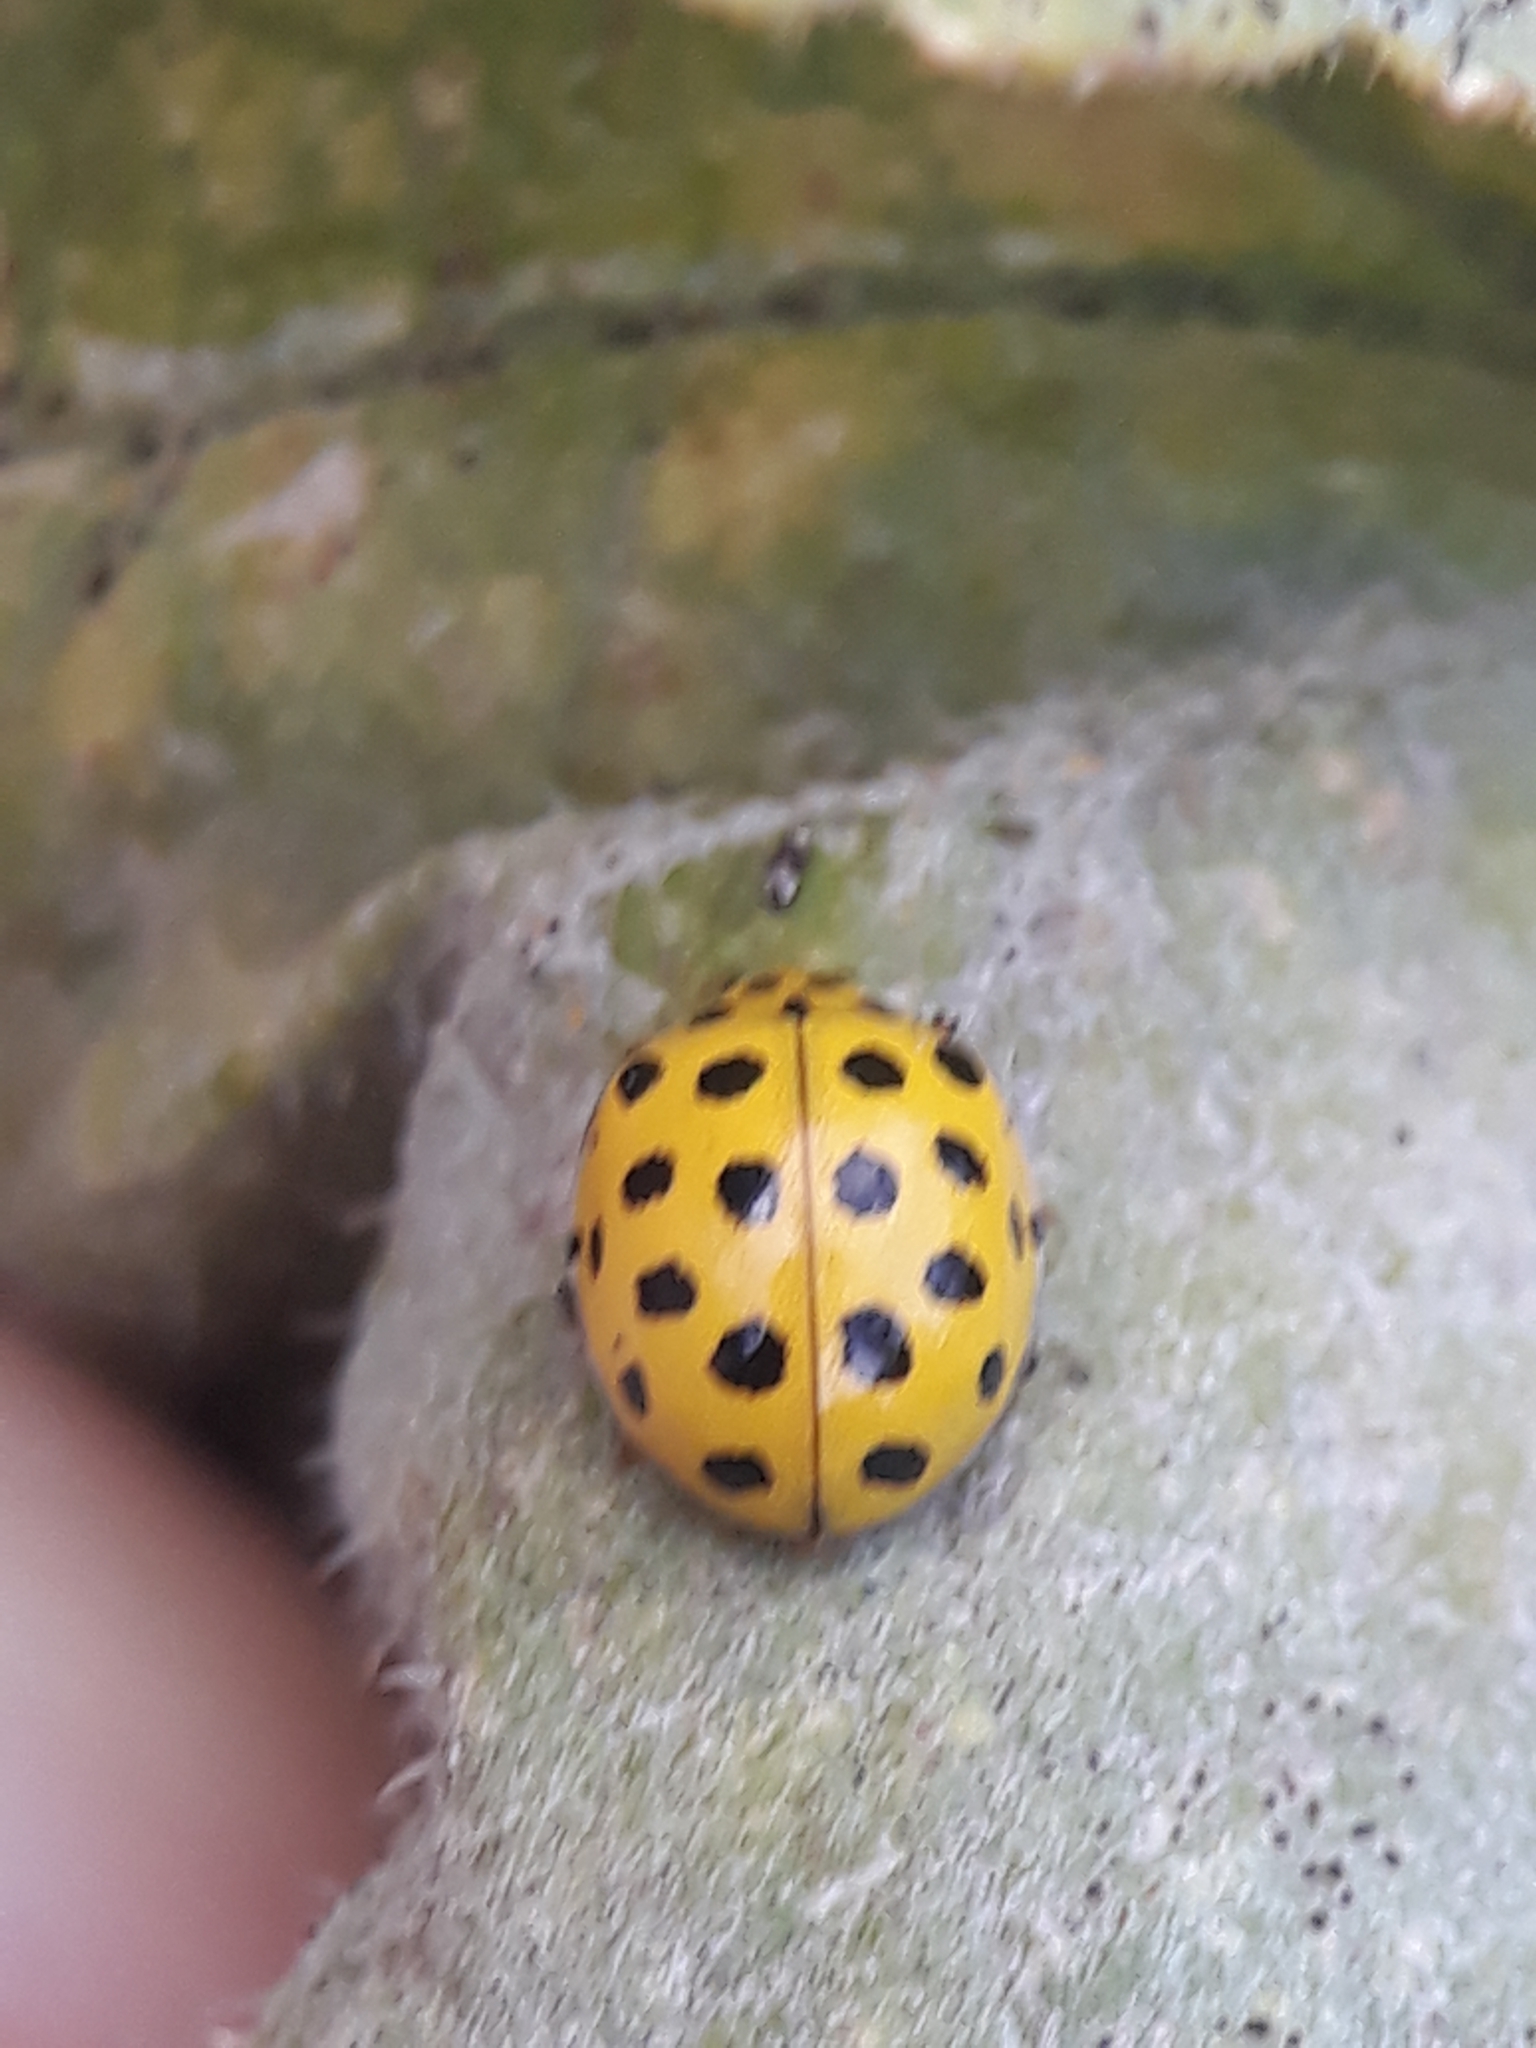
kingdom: Animalia
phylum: Arthropoda
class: Insecta
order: Coleoptera
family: Coccinellidae
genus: Psyllobora
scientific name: Psyllobora vigintiduopunctata
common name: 22-spot ladybird
